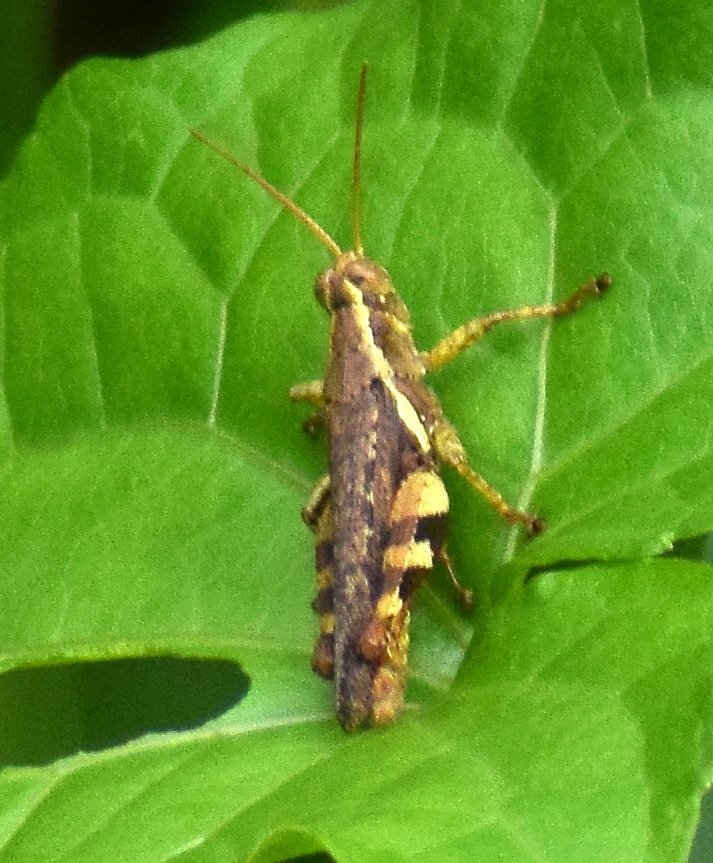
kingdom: Animalia
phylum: Arthropoda
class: Insecta
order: Orthoptera
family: Acrididae
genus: Xenocatantops
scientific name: Xenocatantops humile
